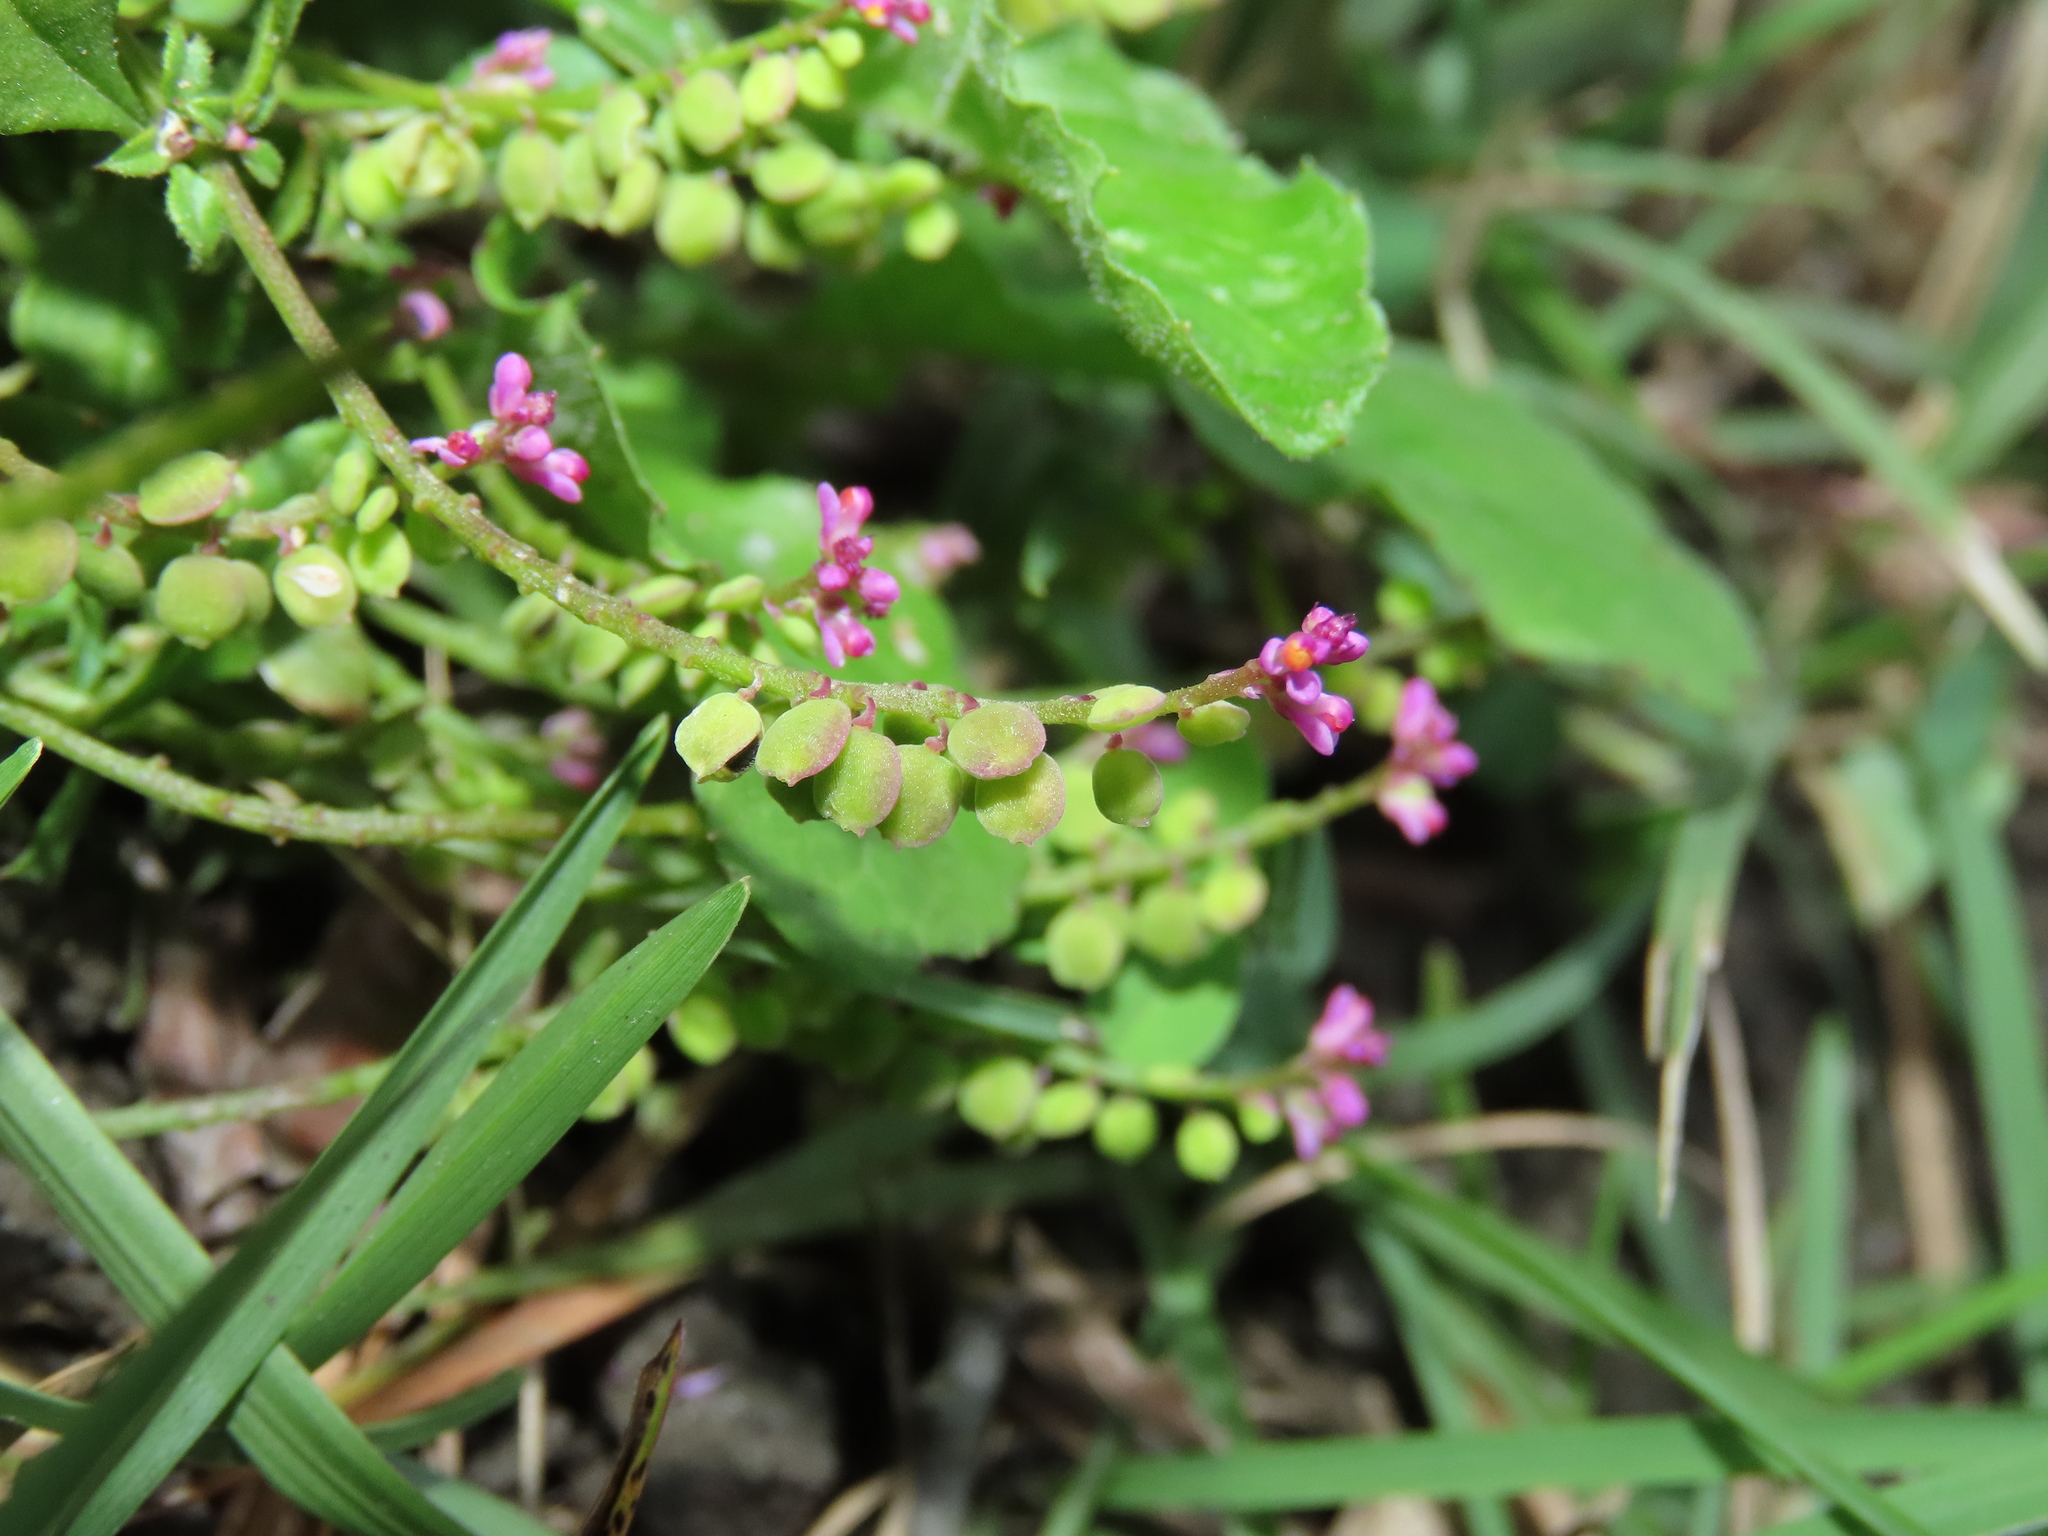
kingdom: Plantae
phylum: Tracheophyta
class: Magnoliopsida
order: Fabales
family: Polygalaceae
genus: Polygala
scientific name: Polygala tatarinowii
